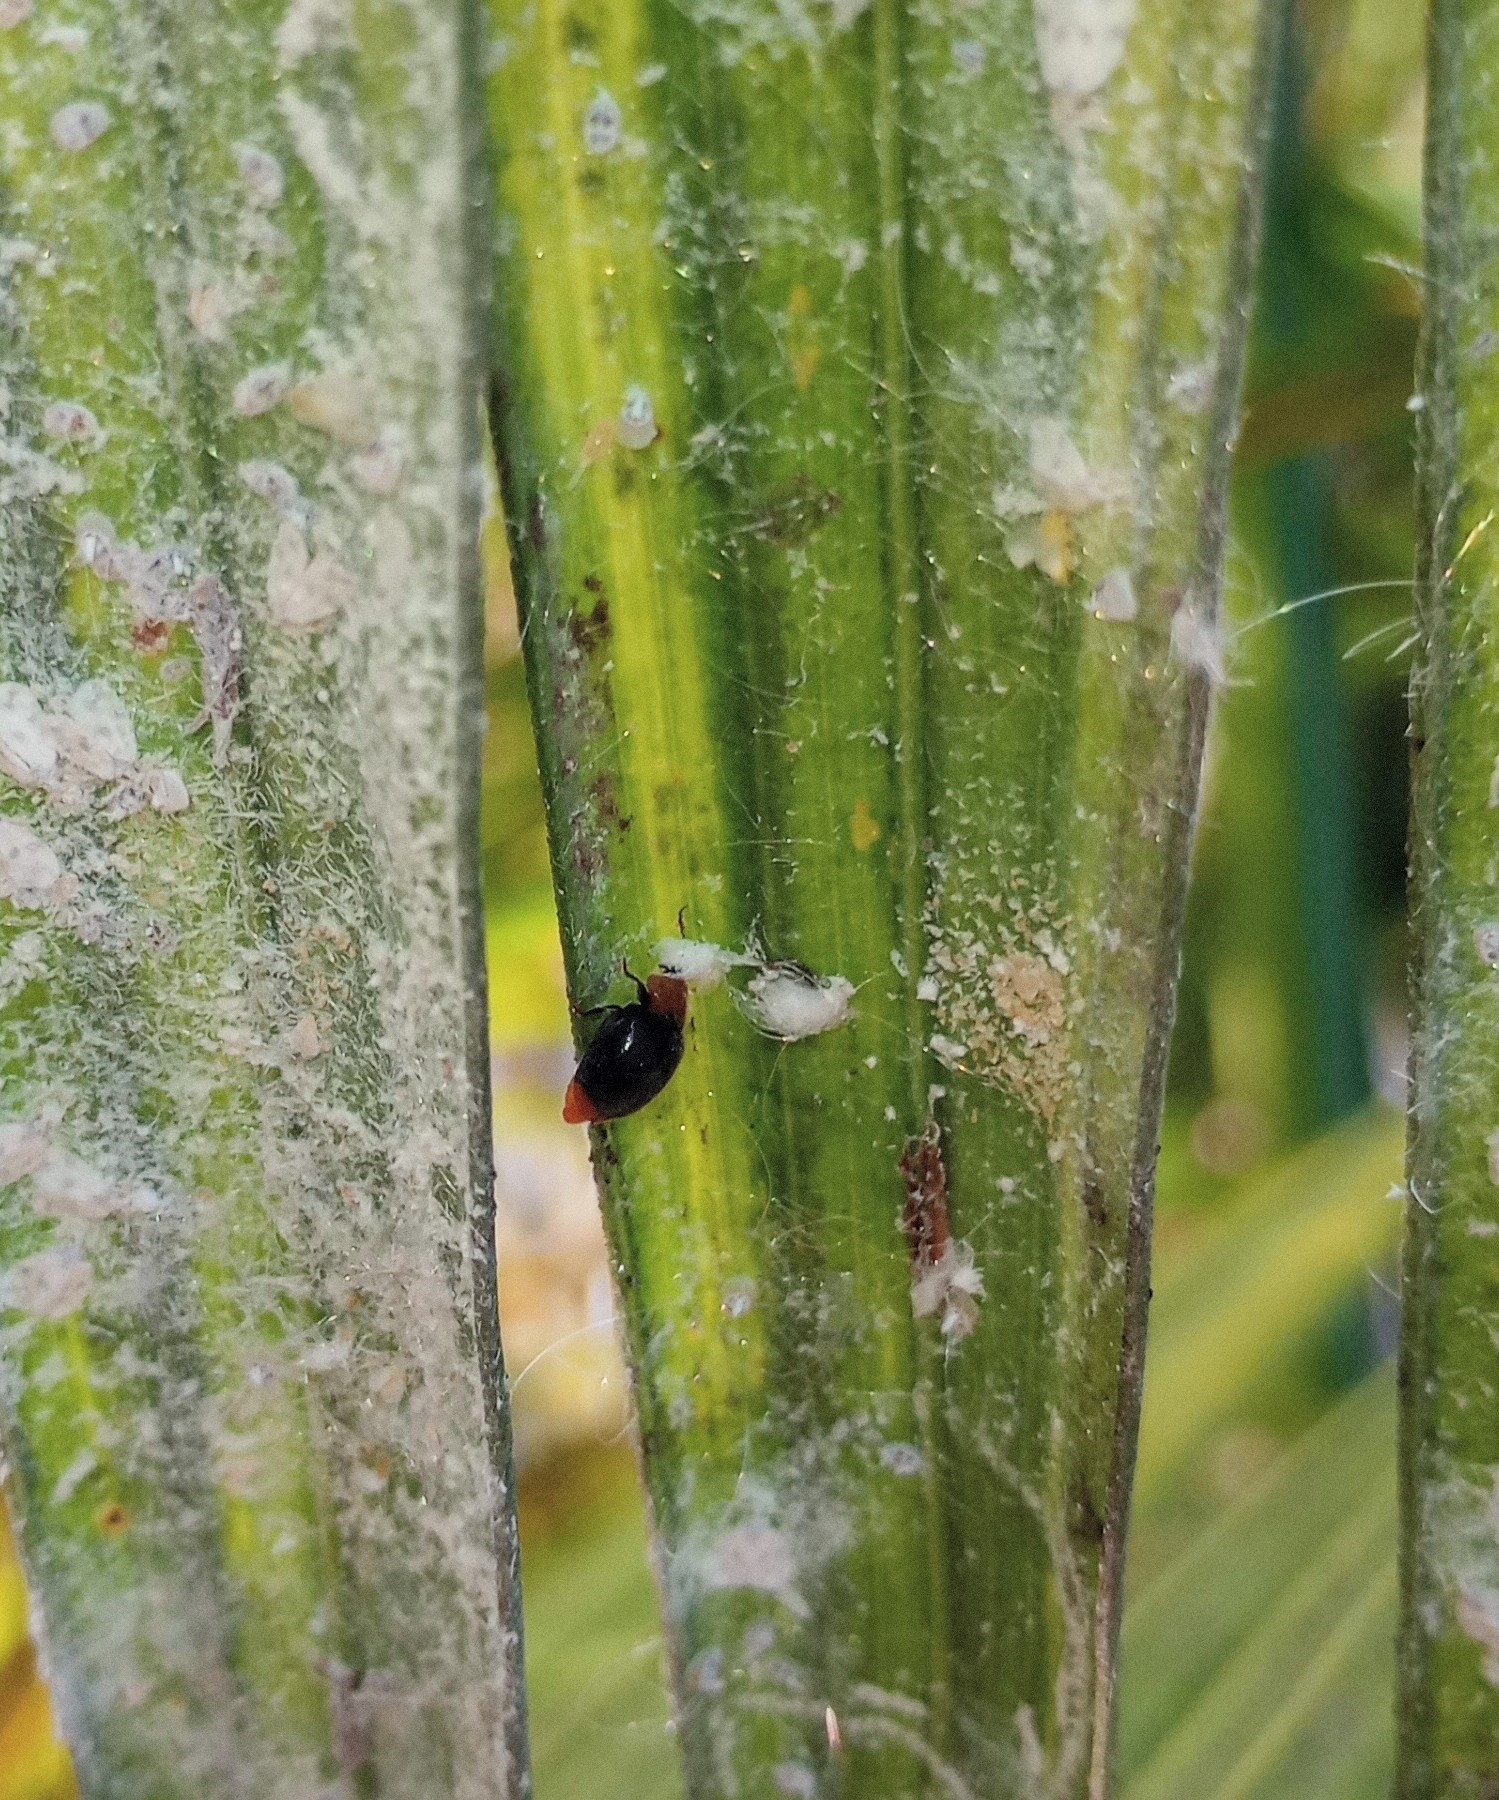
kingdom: Animalia
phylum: Arthropoda
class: Insecta
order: Coleoptera
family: Coccinellidae
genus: Cryptolaemus
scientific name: Cryptolaemus montrouzieri
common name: Mealybug destroyer
